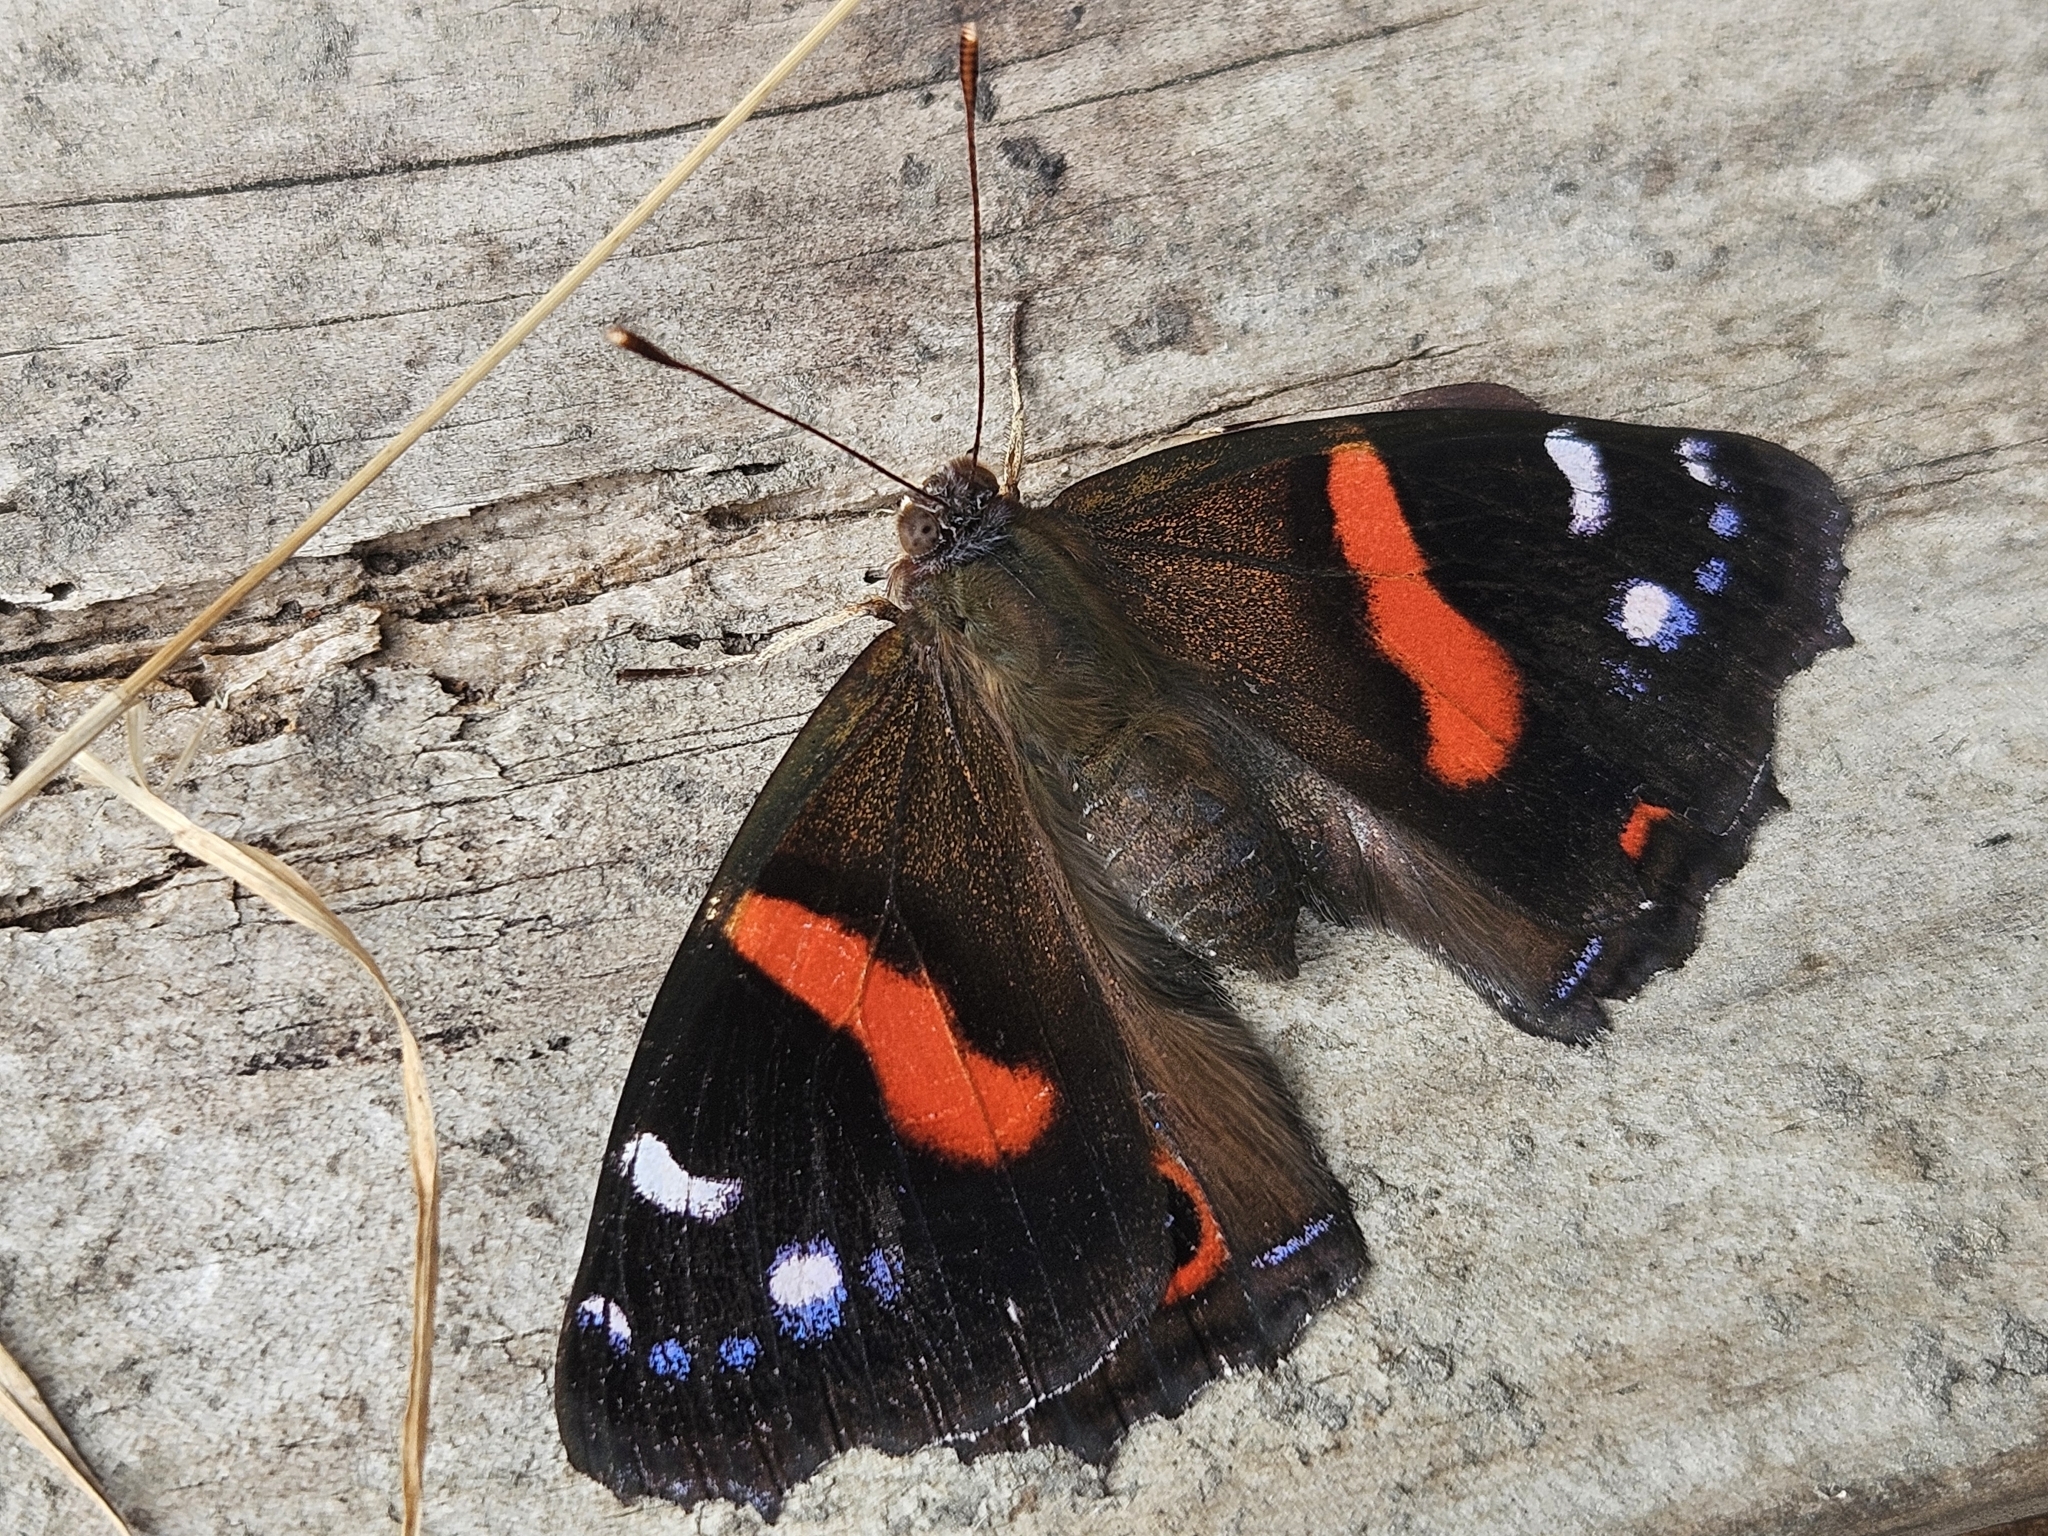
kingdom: Animalia
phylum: Arthropoda
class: Insecta
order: Lepidoptera
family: Nymphalidae
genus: Vanessa
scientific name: Vanessa gonerilla
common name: New zealand red admiral
